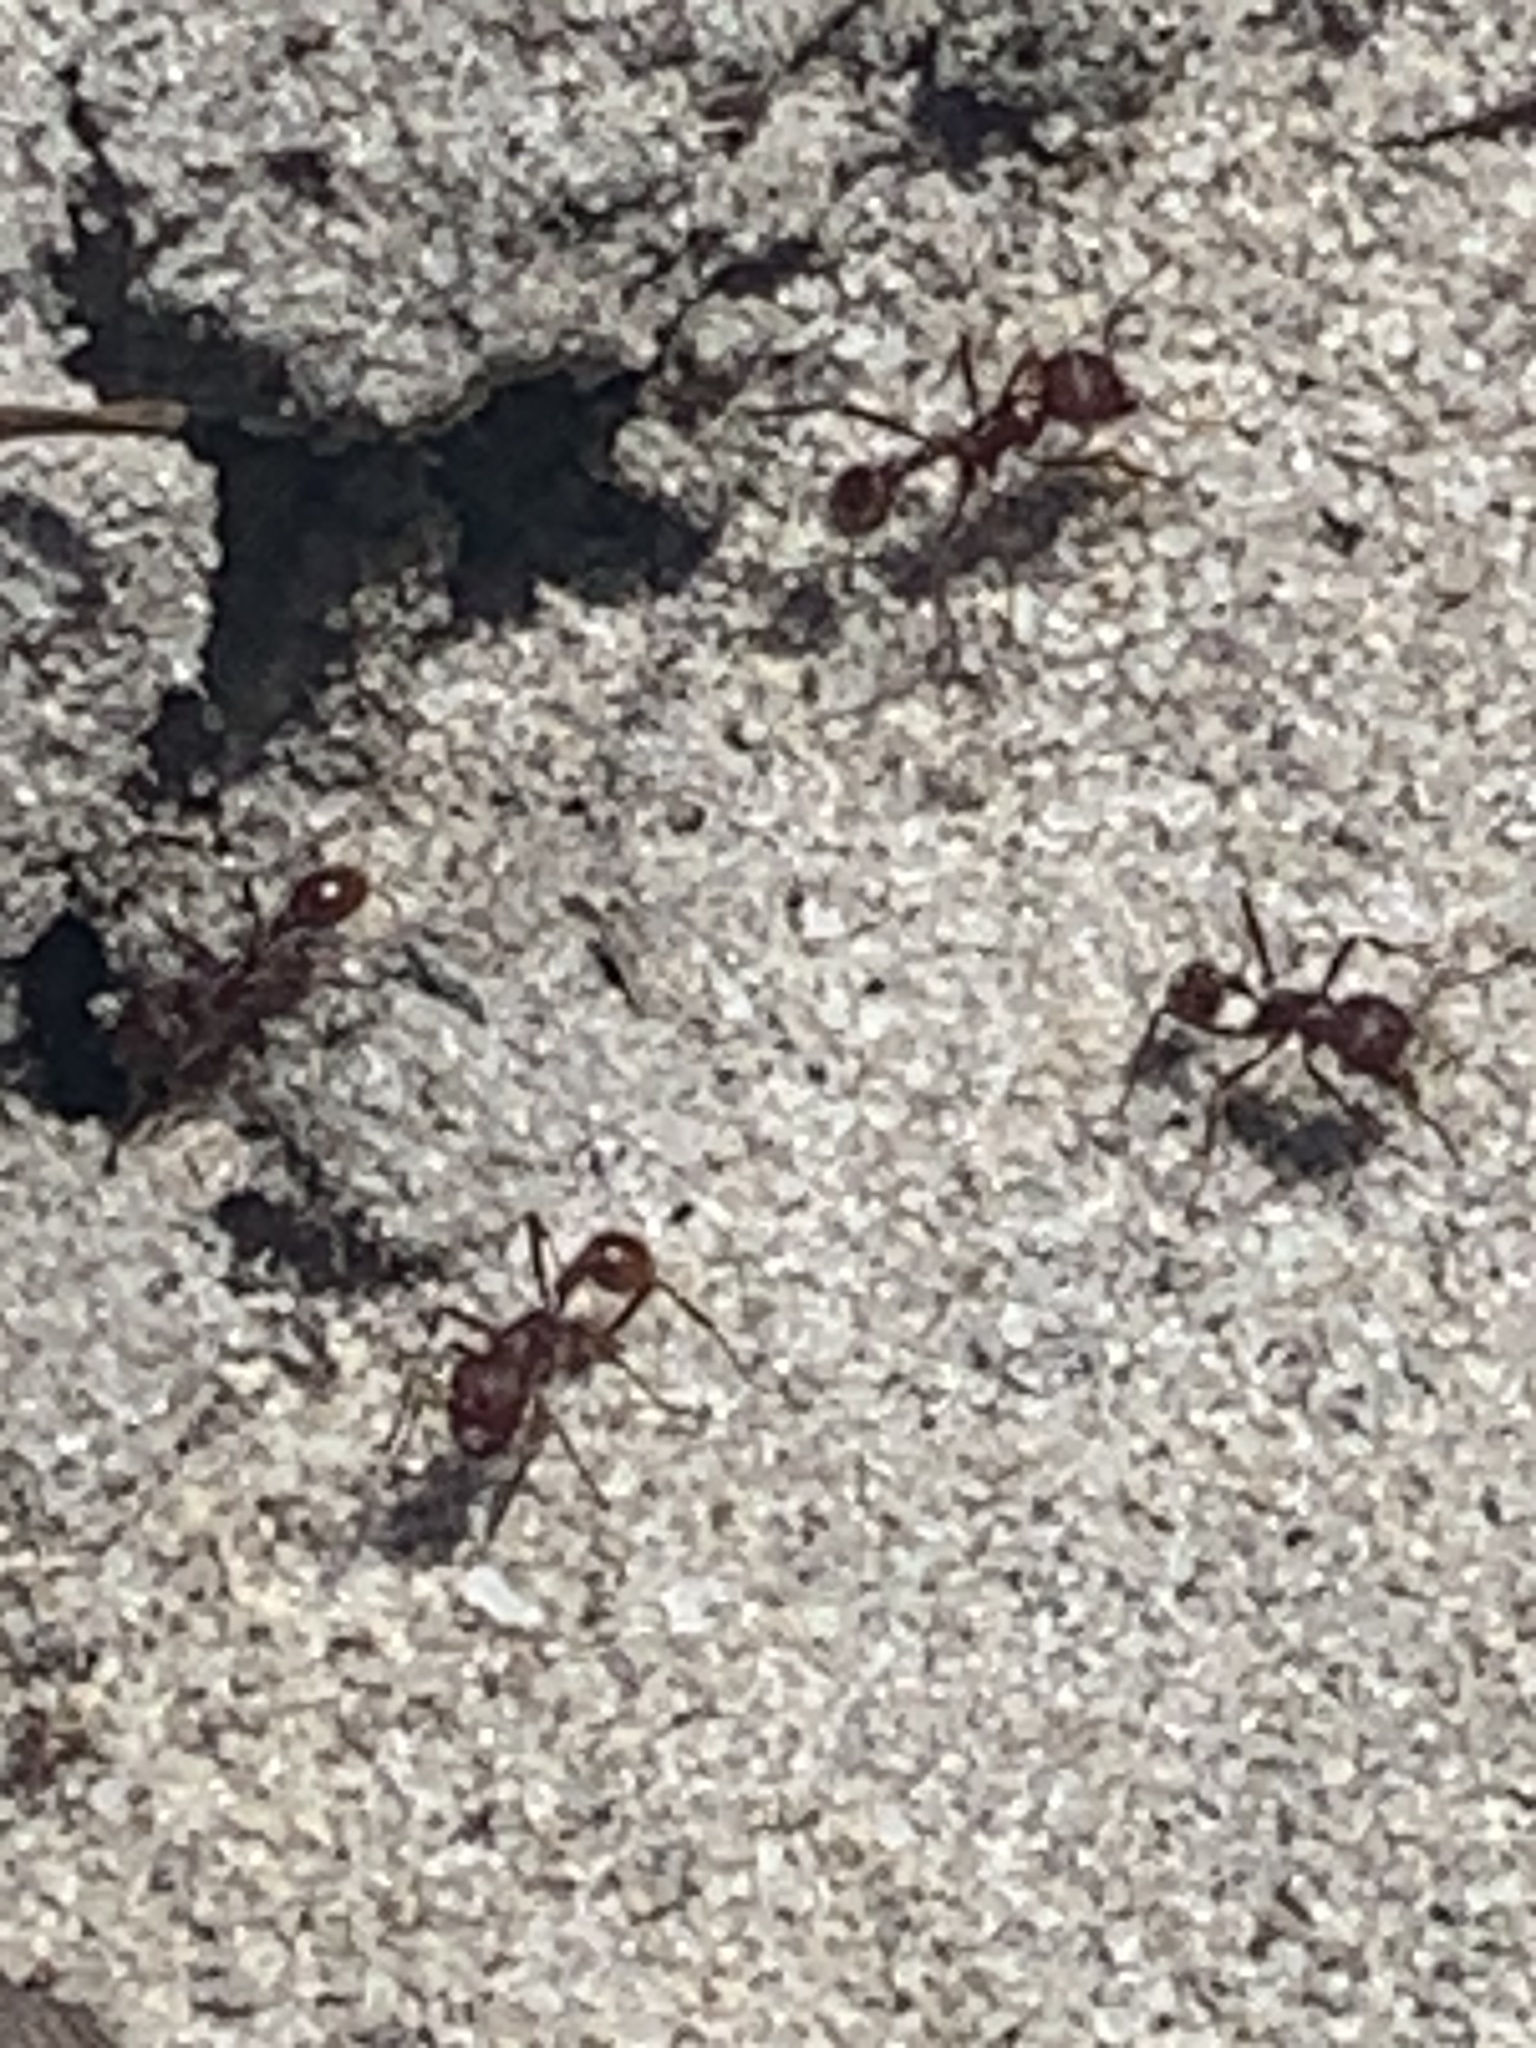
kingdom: Animalia
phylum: Arthropoda
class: Insecta
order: Hymenoptera
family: Formicidae
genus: Pogonomyrmex
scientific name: Pogonomyrmex badius
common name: Florida harvester ant
